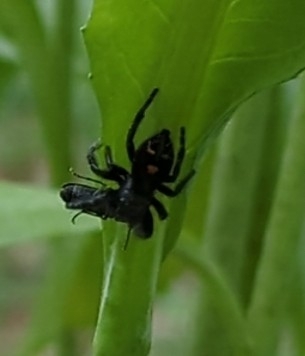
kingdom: Animalia
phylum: Arthropoda
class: Arachnida
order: Araneae
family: Salticidae
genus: Phidippus
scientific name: Phidippus audax
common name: Bold jumper
